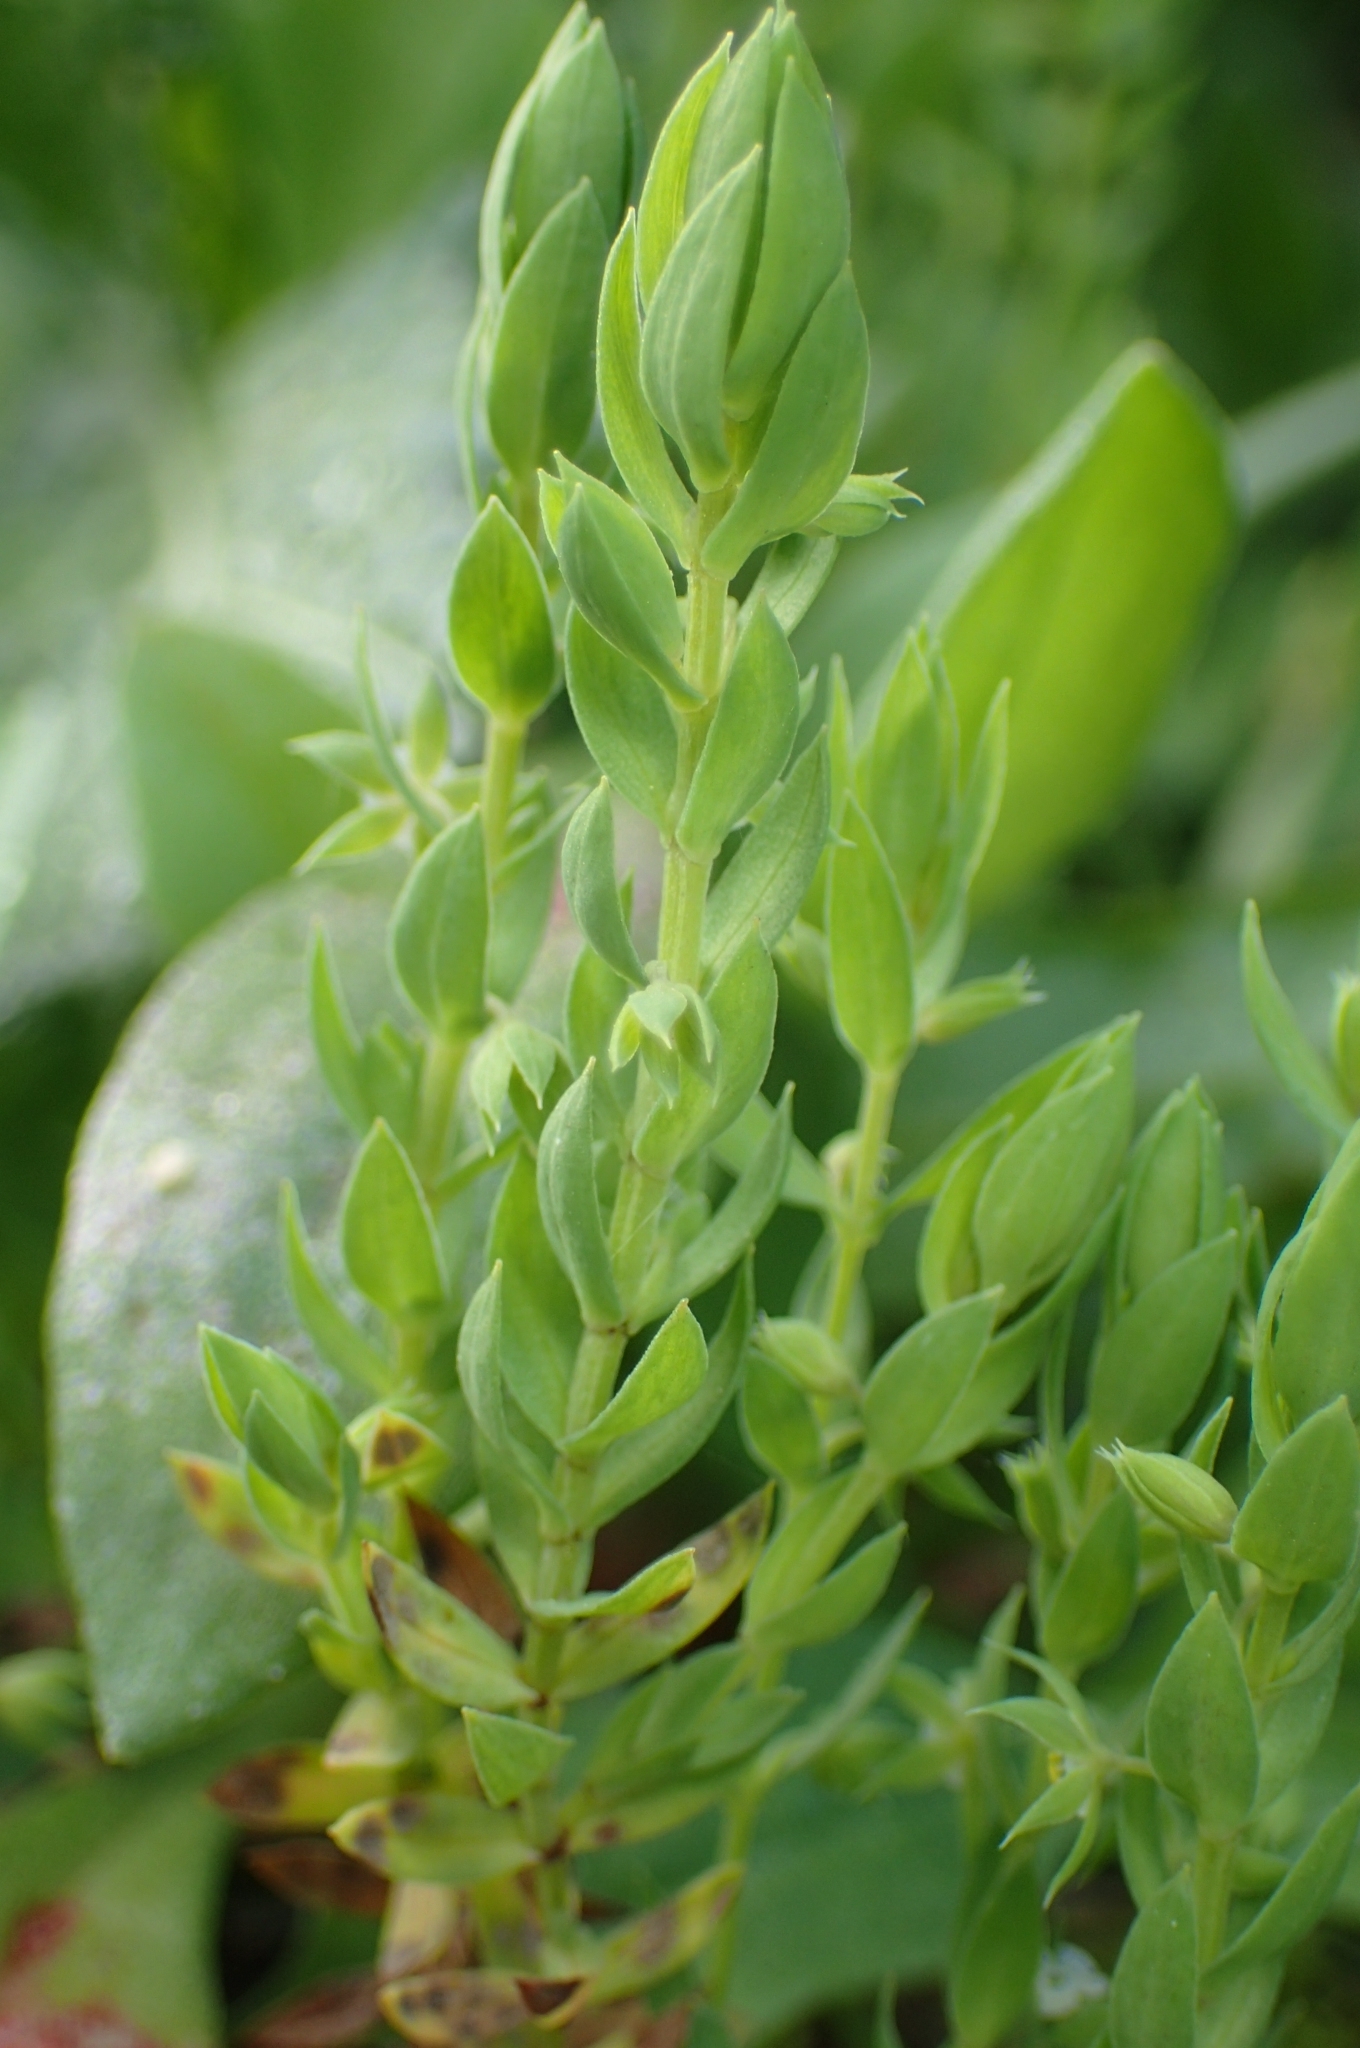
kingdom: Plantae
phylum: Tracheophyta
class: Magnoliopsida
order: Ericales
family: Primulaceae
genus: Lysimachia
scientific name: Lysimachia linum-stellatum
